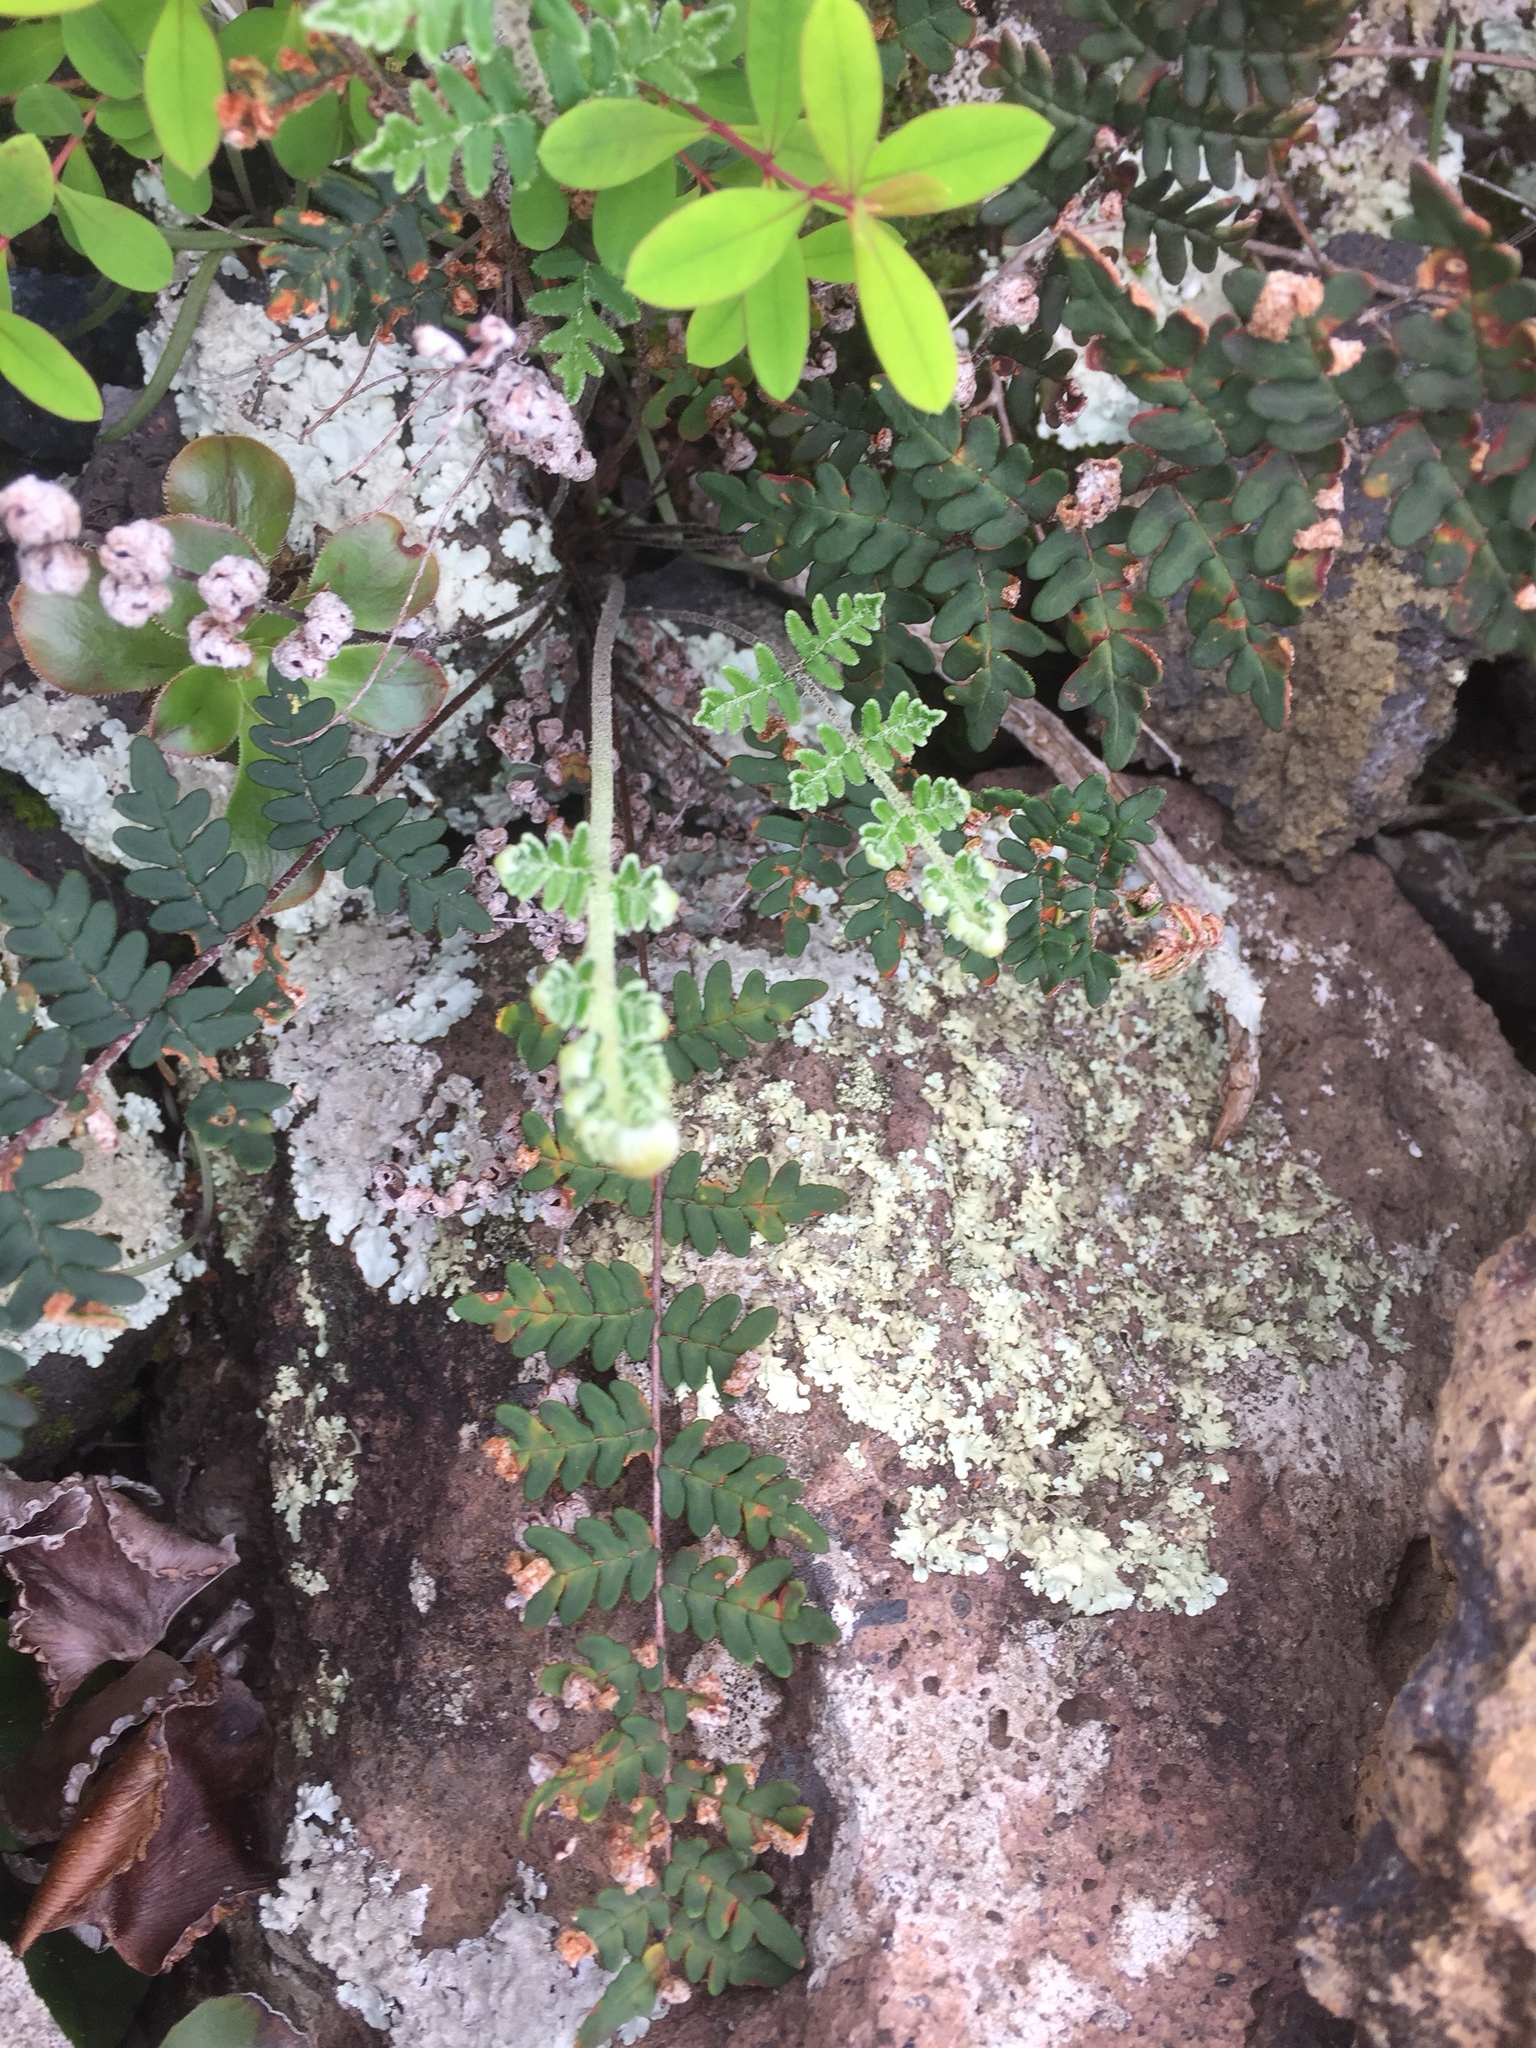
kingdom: Plantae
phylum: Tracheophyta
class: Polypodiopsida
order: Polypodiales
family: Pteridaceae
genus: Paragymnopteris
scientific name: Paragymnopteris marantae
